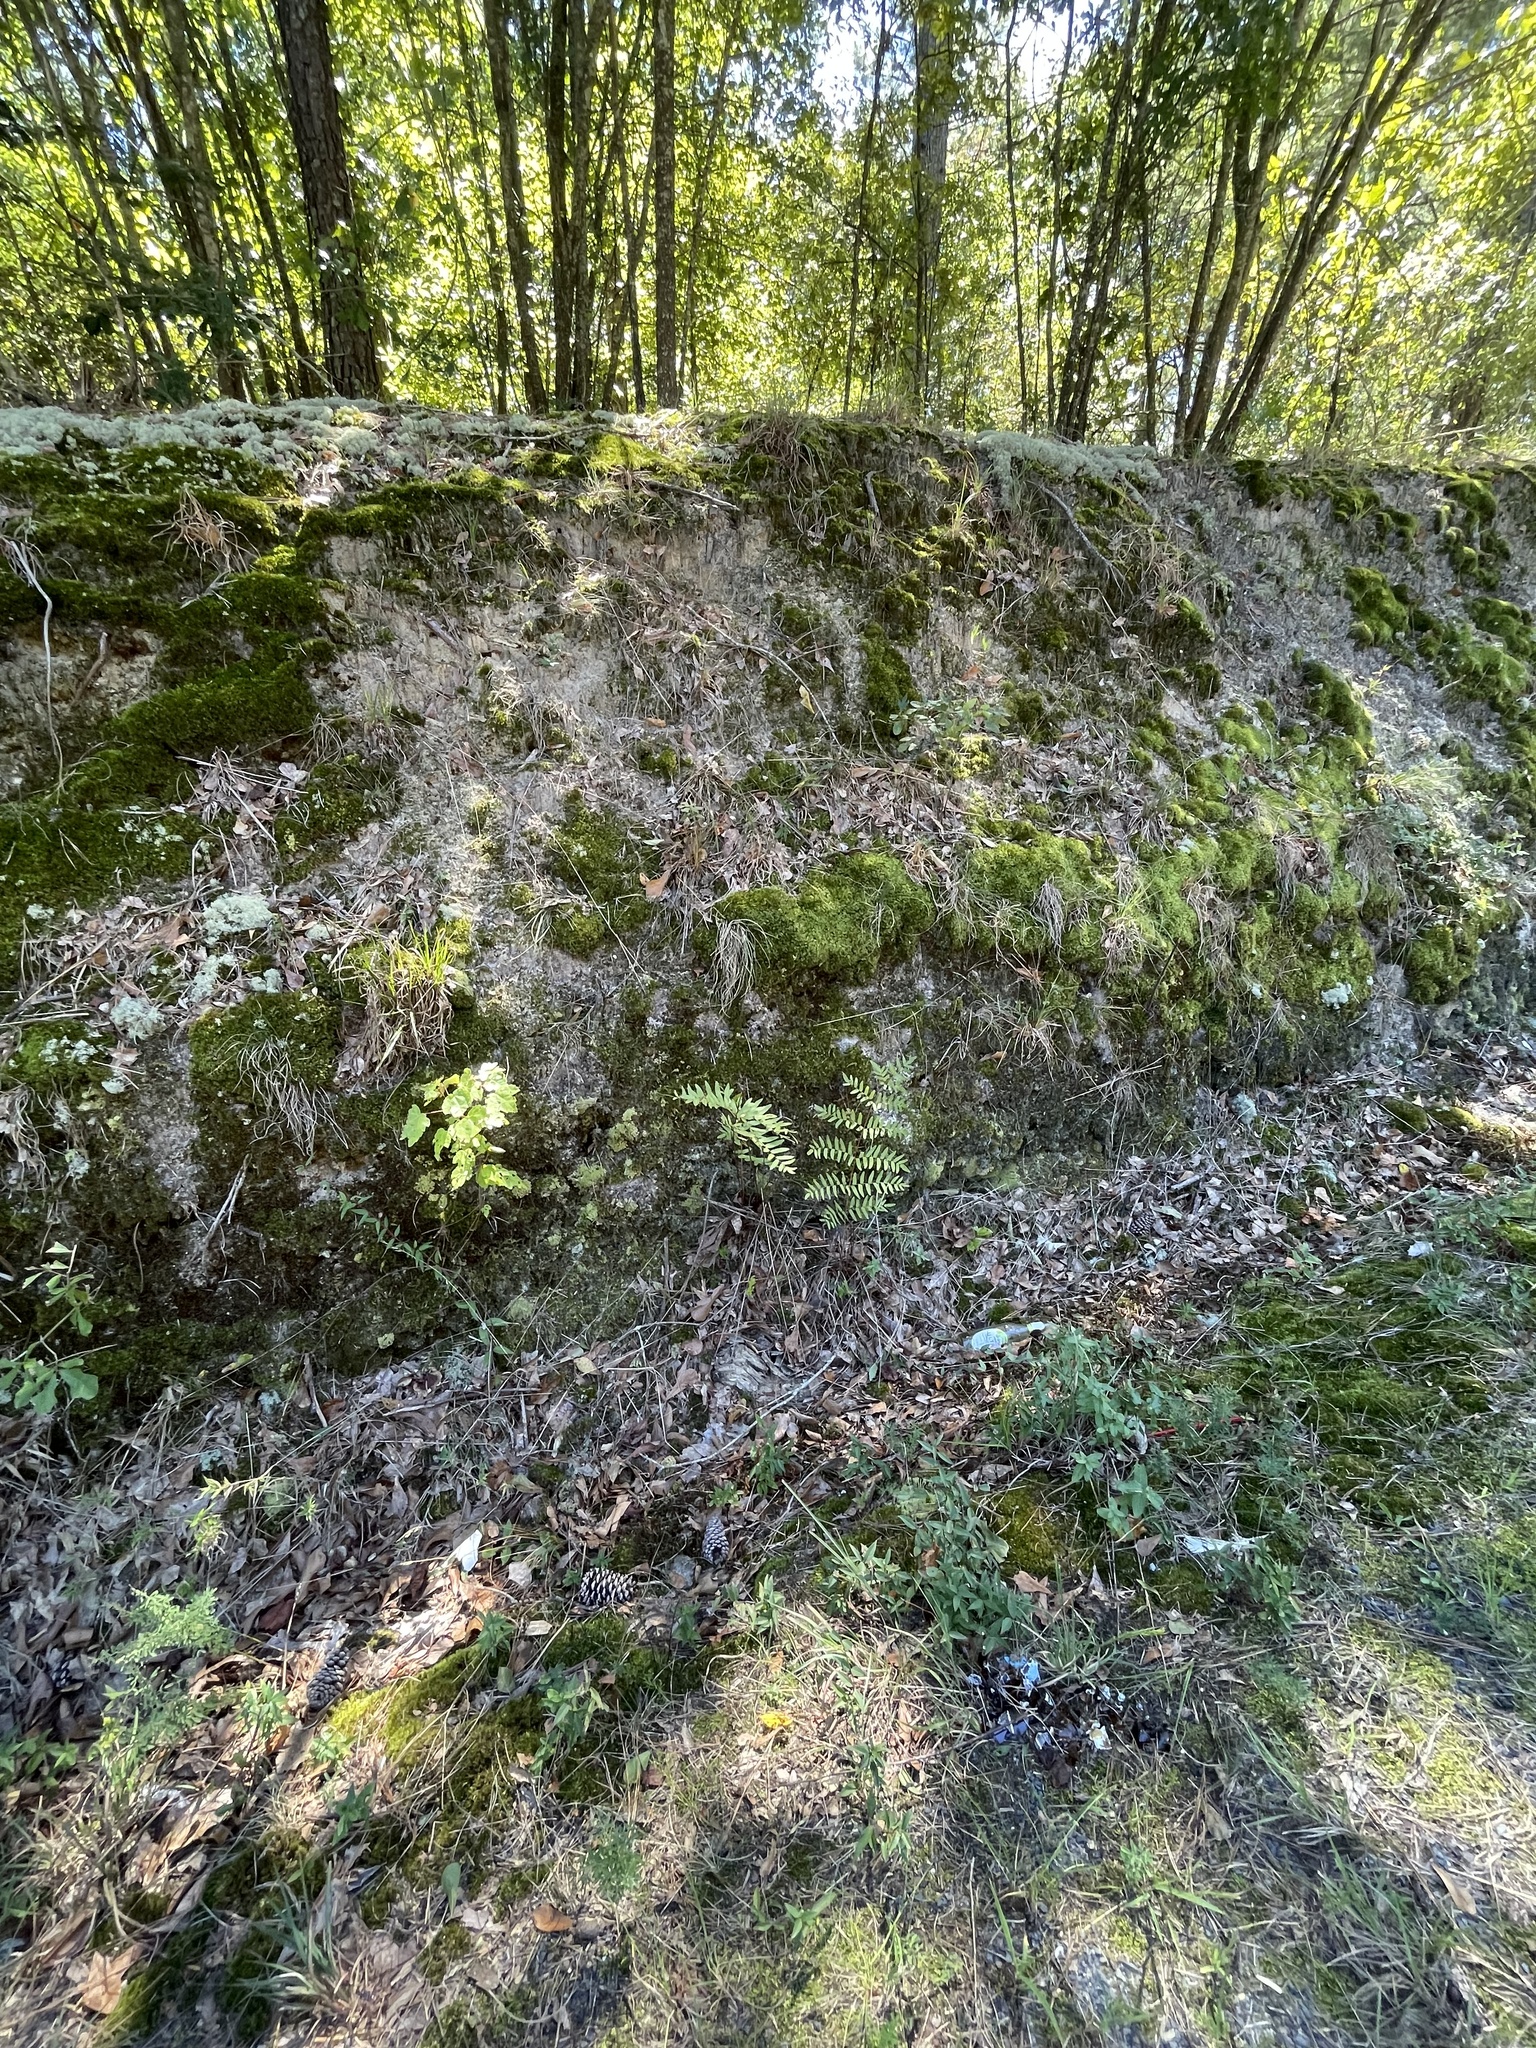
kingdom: Plantae
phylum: Tracheophyta
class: Polypodiopsida
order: Osmundales
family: Osmundaceae
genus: Osmunda
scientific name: Osmunda spectabilis
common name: American royal fern
